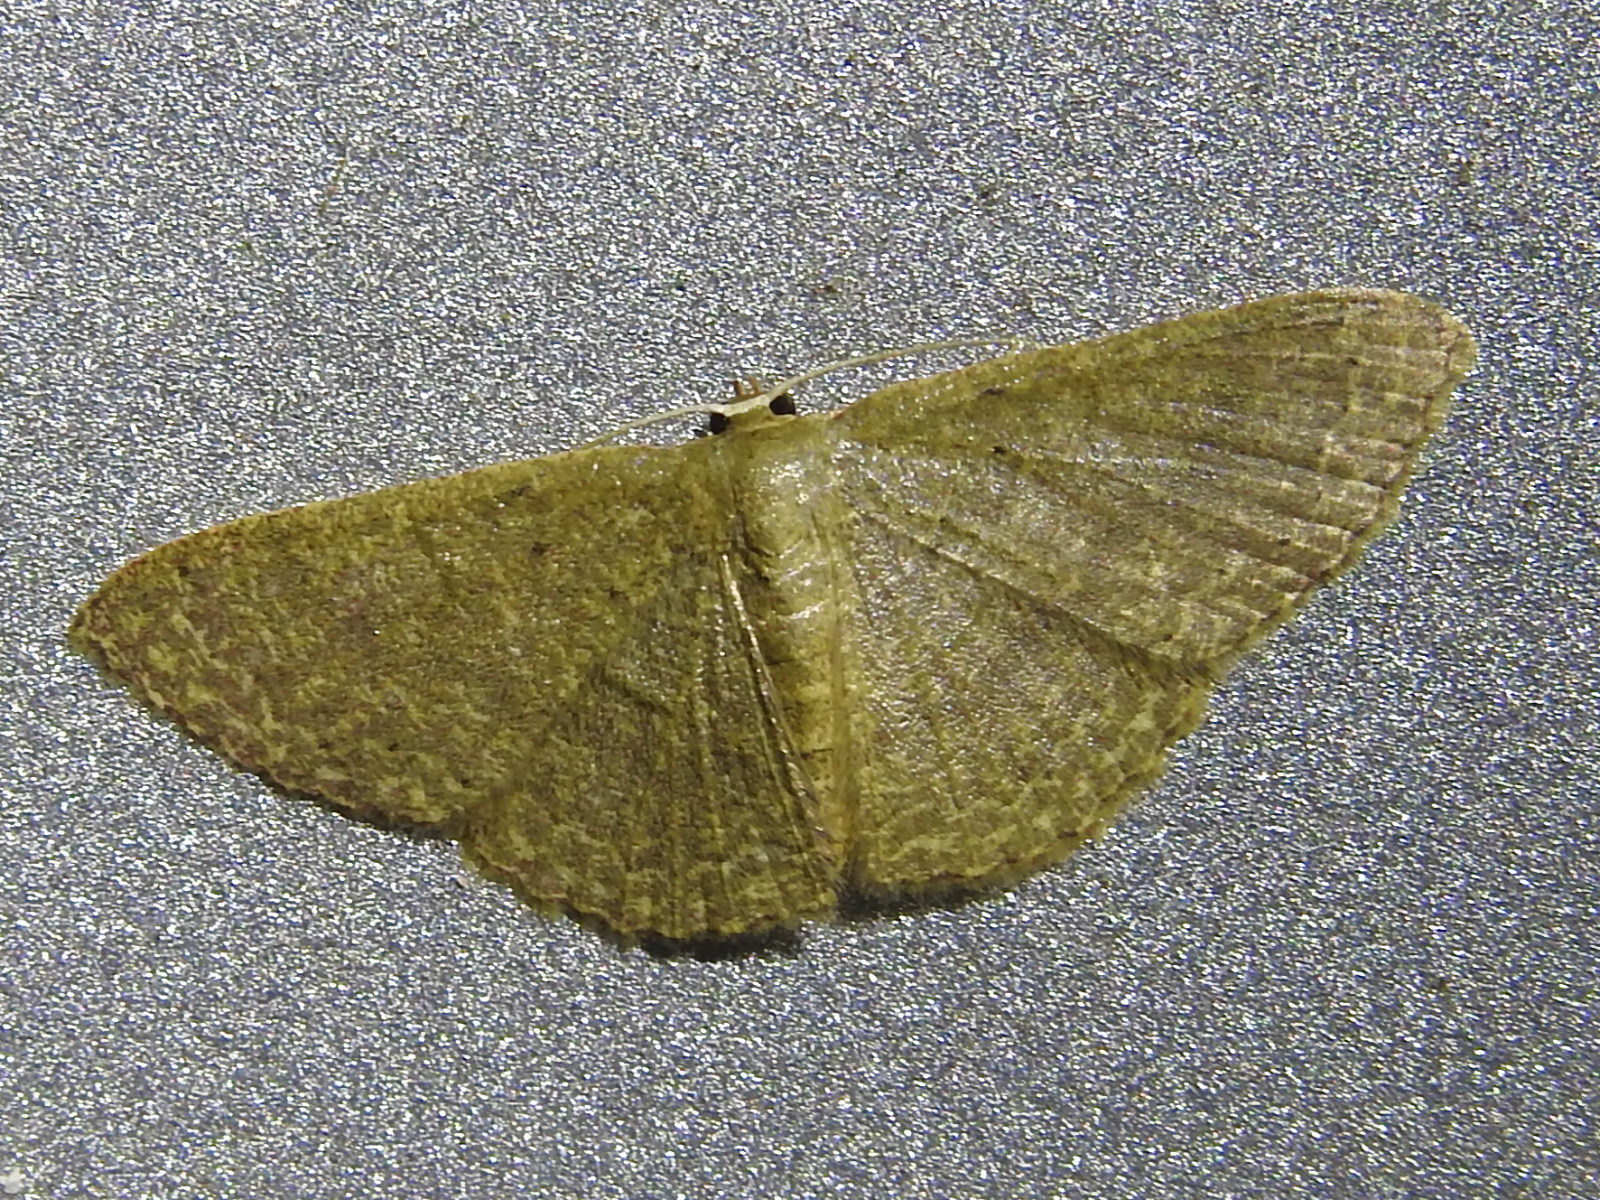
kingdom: Animalia
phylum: Arthropoda
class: Insecta
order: Lepidoptera
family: Geometridae
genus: Pleuroprucha
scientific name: Pleuroprucha insulsaria
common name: Common tan wave
